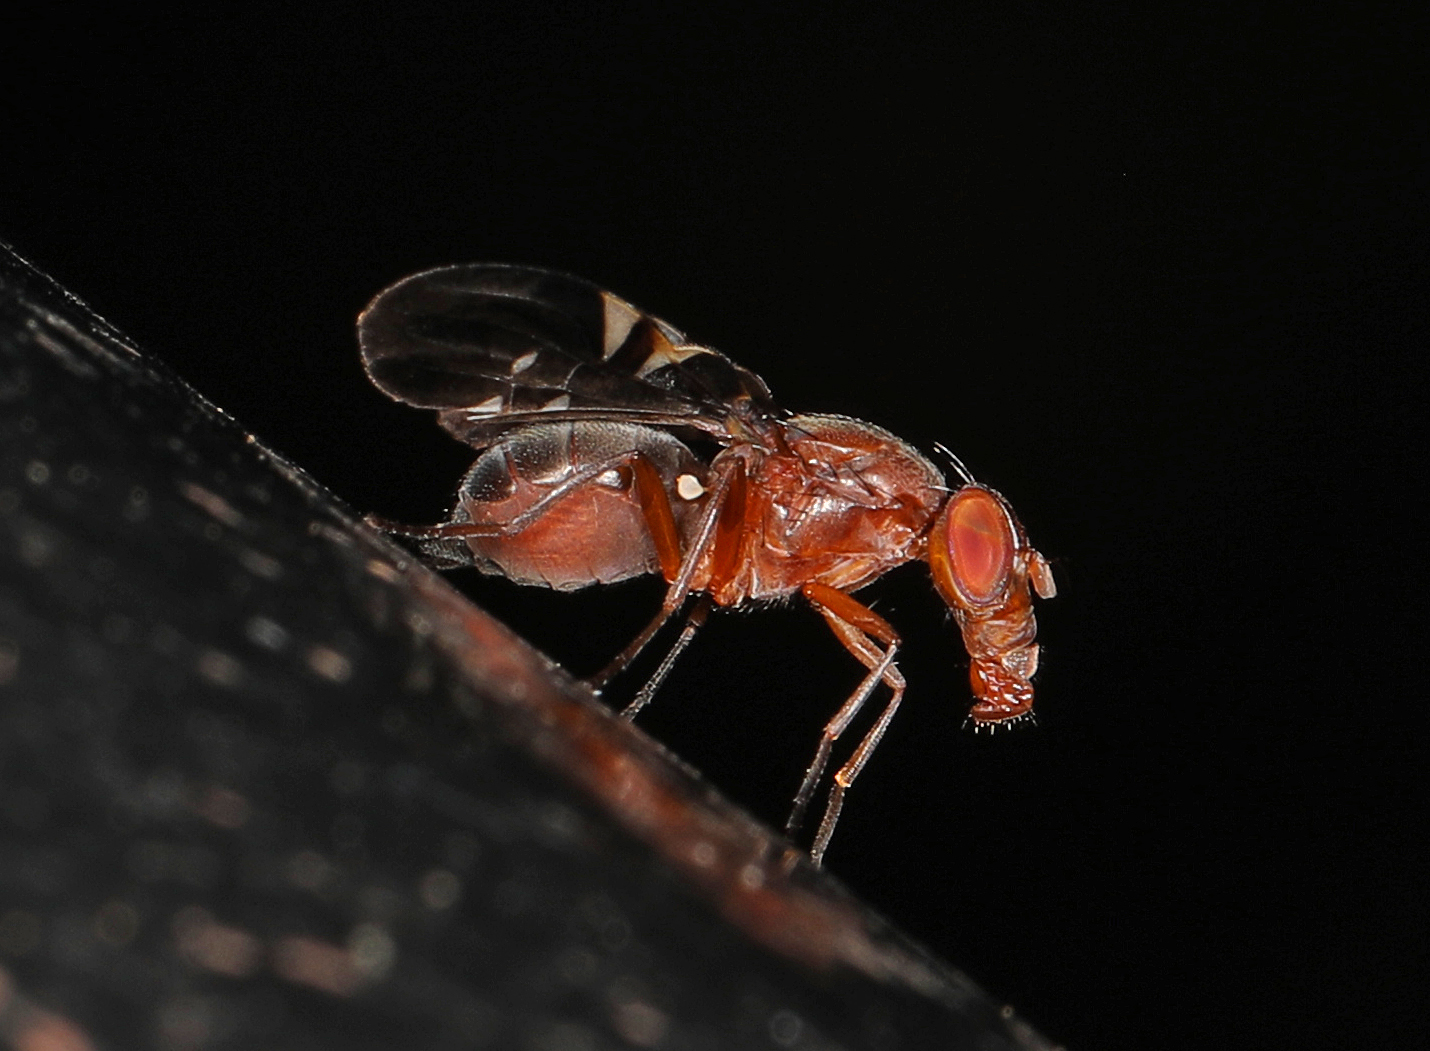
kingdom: Animalia
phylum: Arthropoda
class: Insecta
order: Diptera
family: Ulidiidae
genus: Delphinia
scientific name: Delphinia picta
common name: Common picture-winged fly
